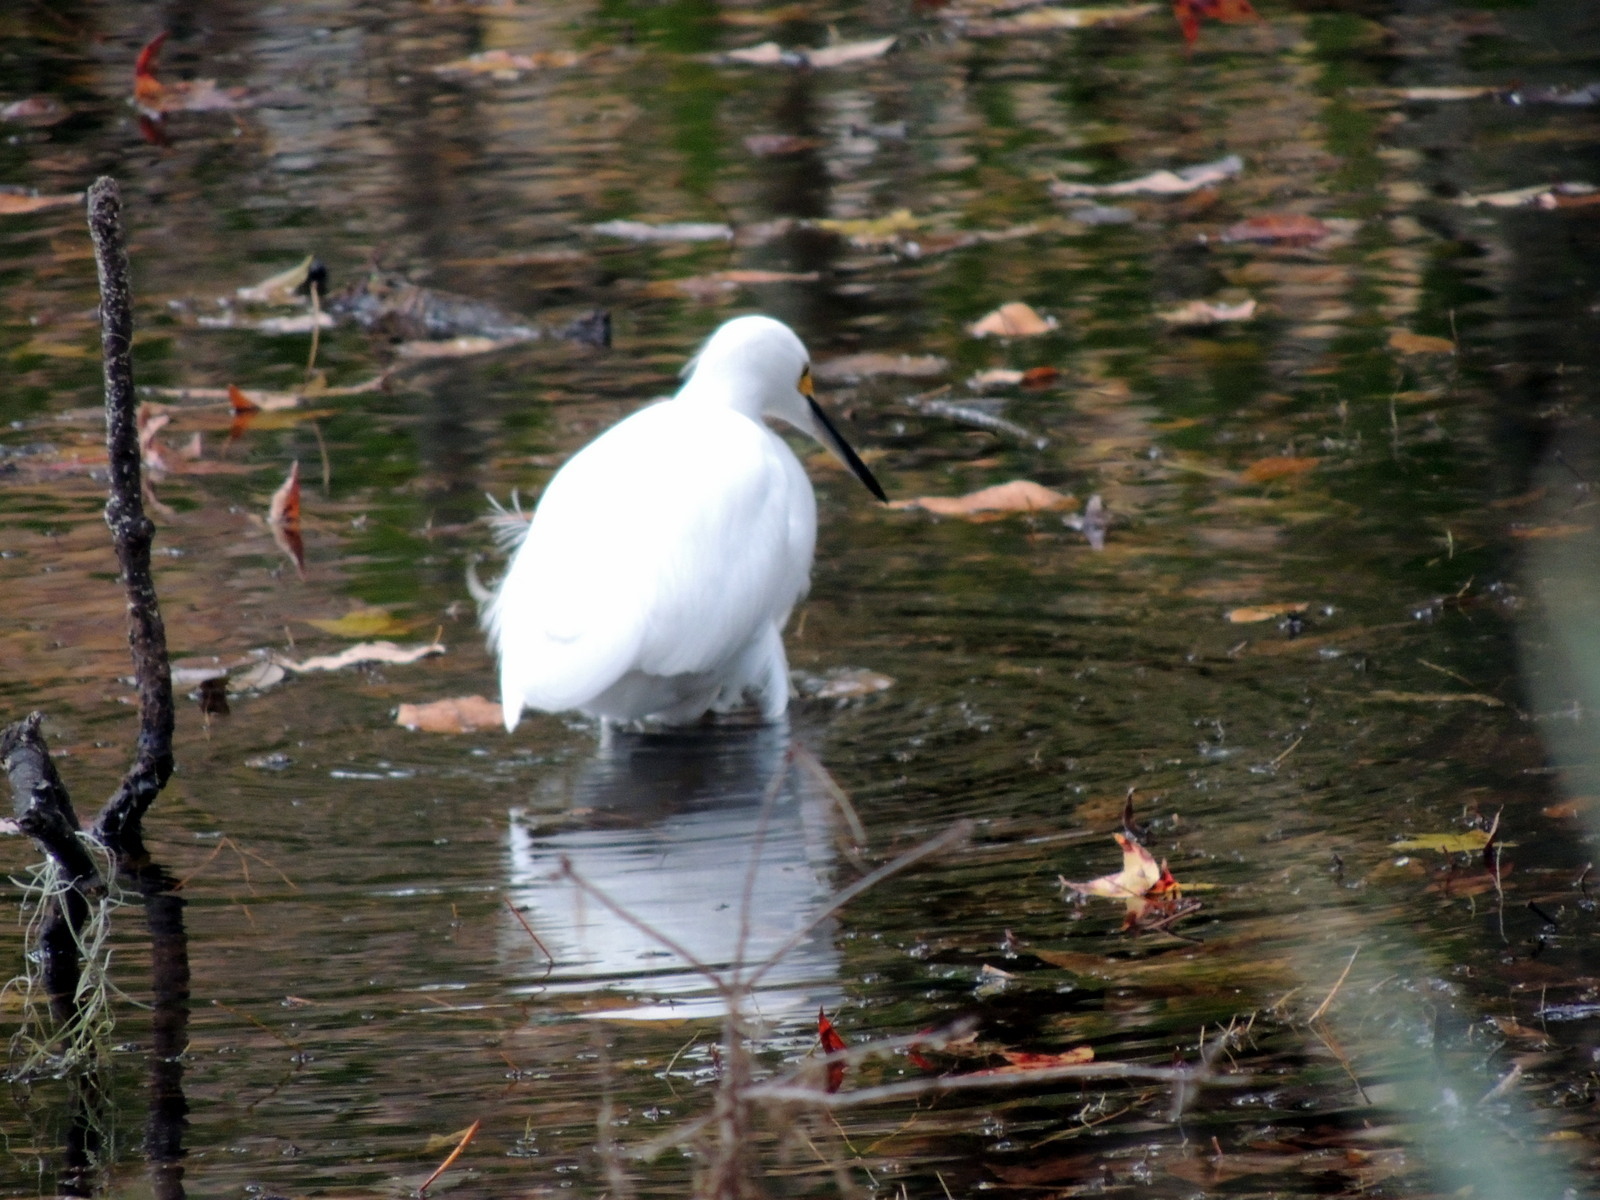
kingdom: Animalia
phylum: Chordata
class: Aves
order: Pelecaniformes
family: Ardeidae
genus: Egretta
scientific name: Egretta thula
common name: Snowy egret
